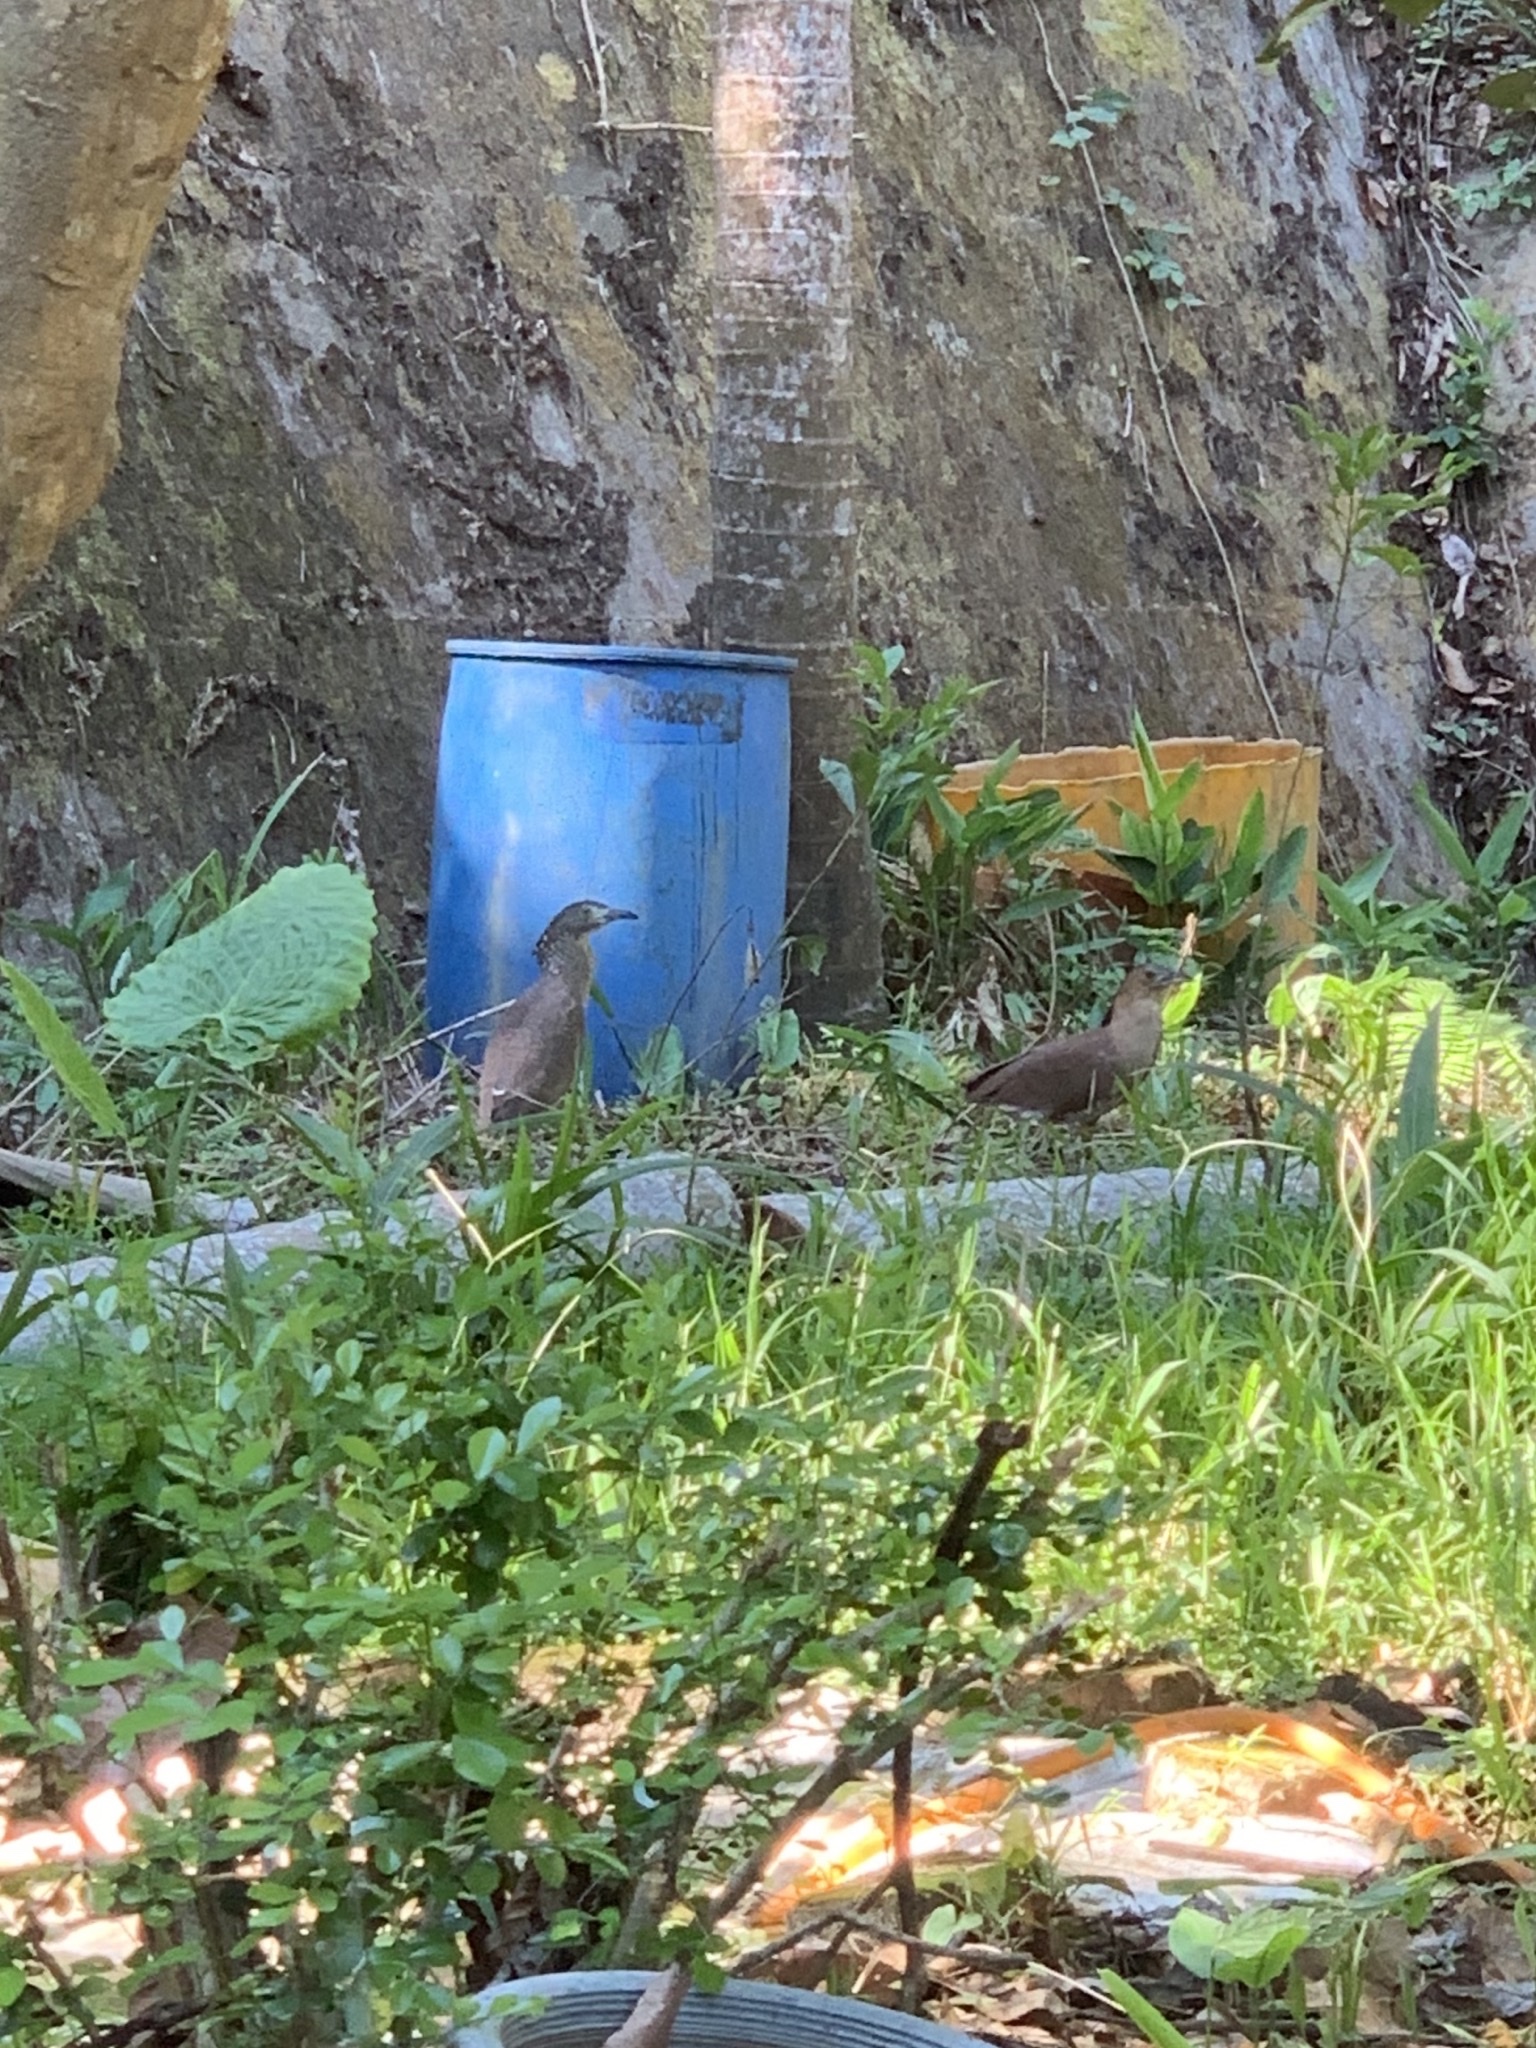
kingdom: Animalia
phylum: Chordata
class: Aves
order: Pelecaniformes
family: Ardeidae
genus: Gorsachius
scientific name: Gorsachius melanolophus
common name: Malayan night heron
